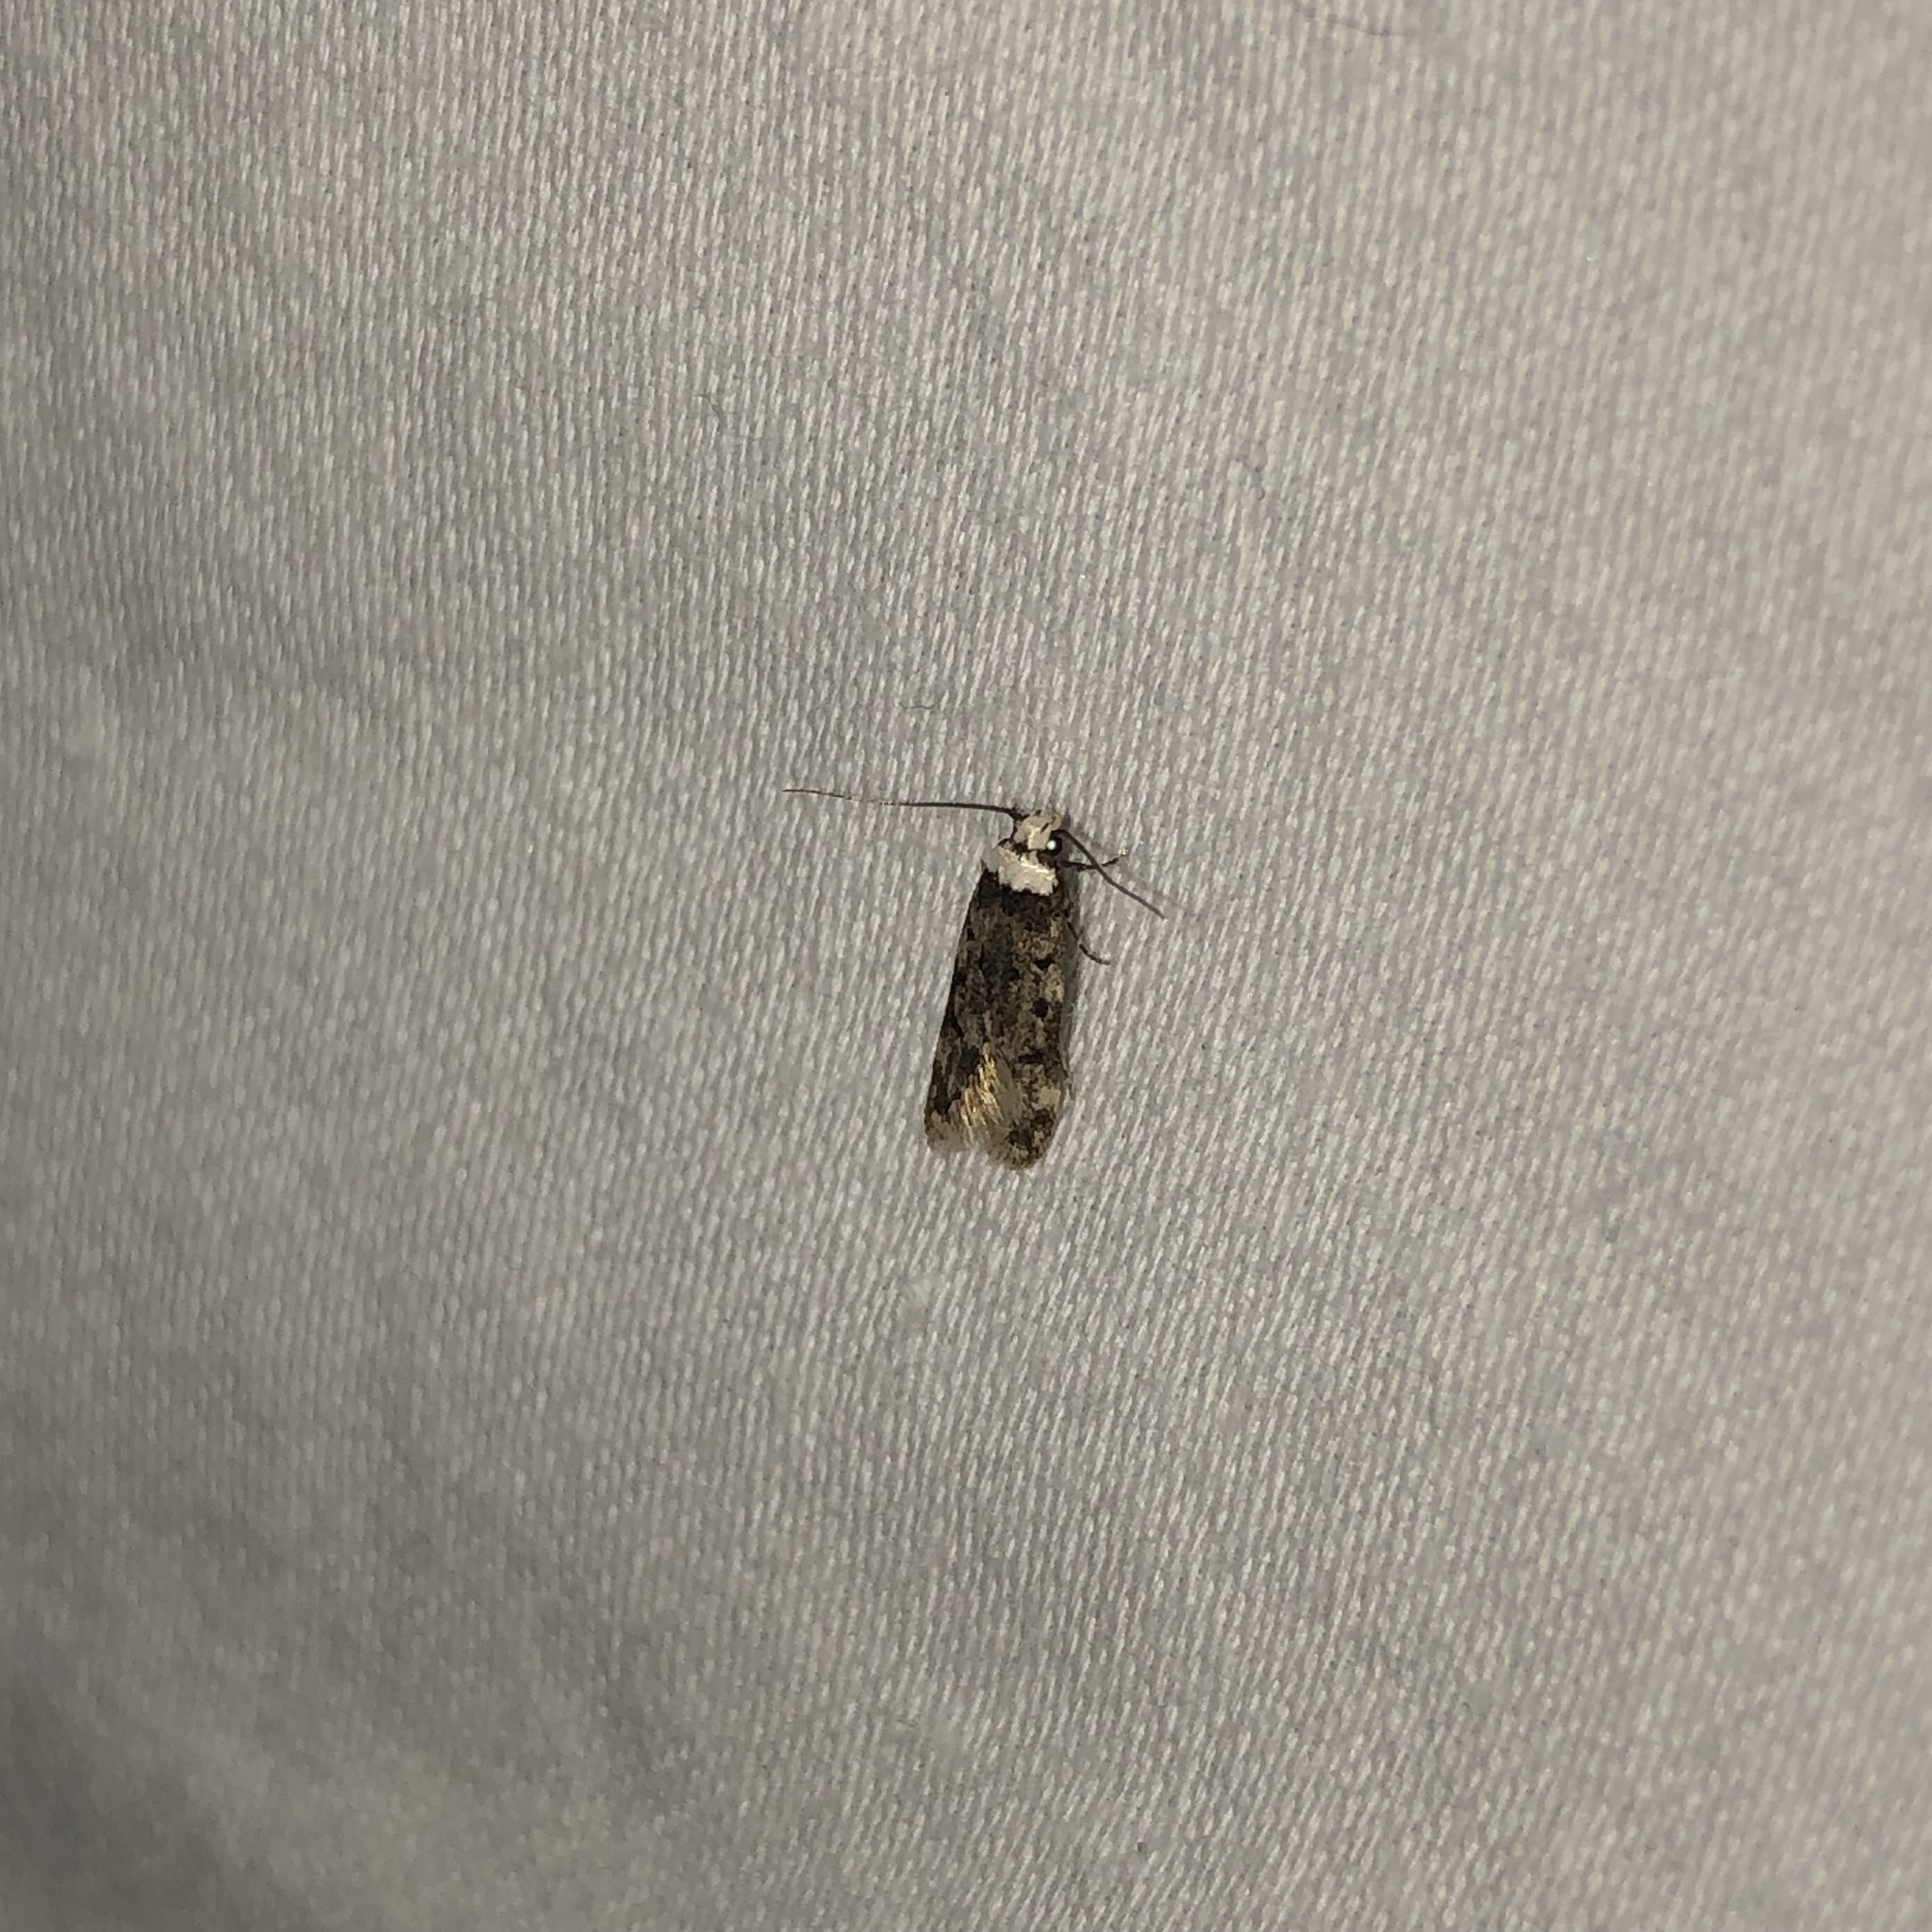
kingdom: Animalia
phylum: Arthropoda
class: Insecta
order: Lepidoptera
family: Oecophoridae
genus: Endrosis
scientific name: Endrosis sarcitrella
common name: White-shouldered house moth
